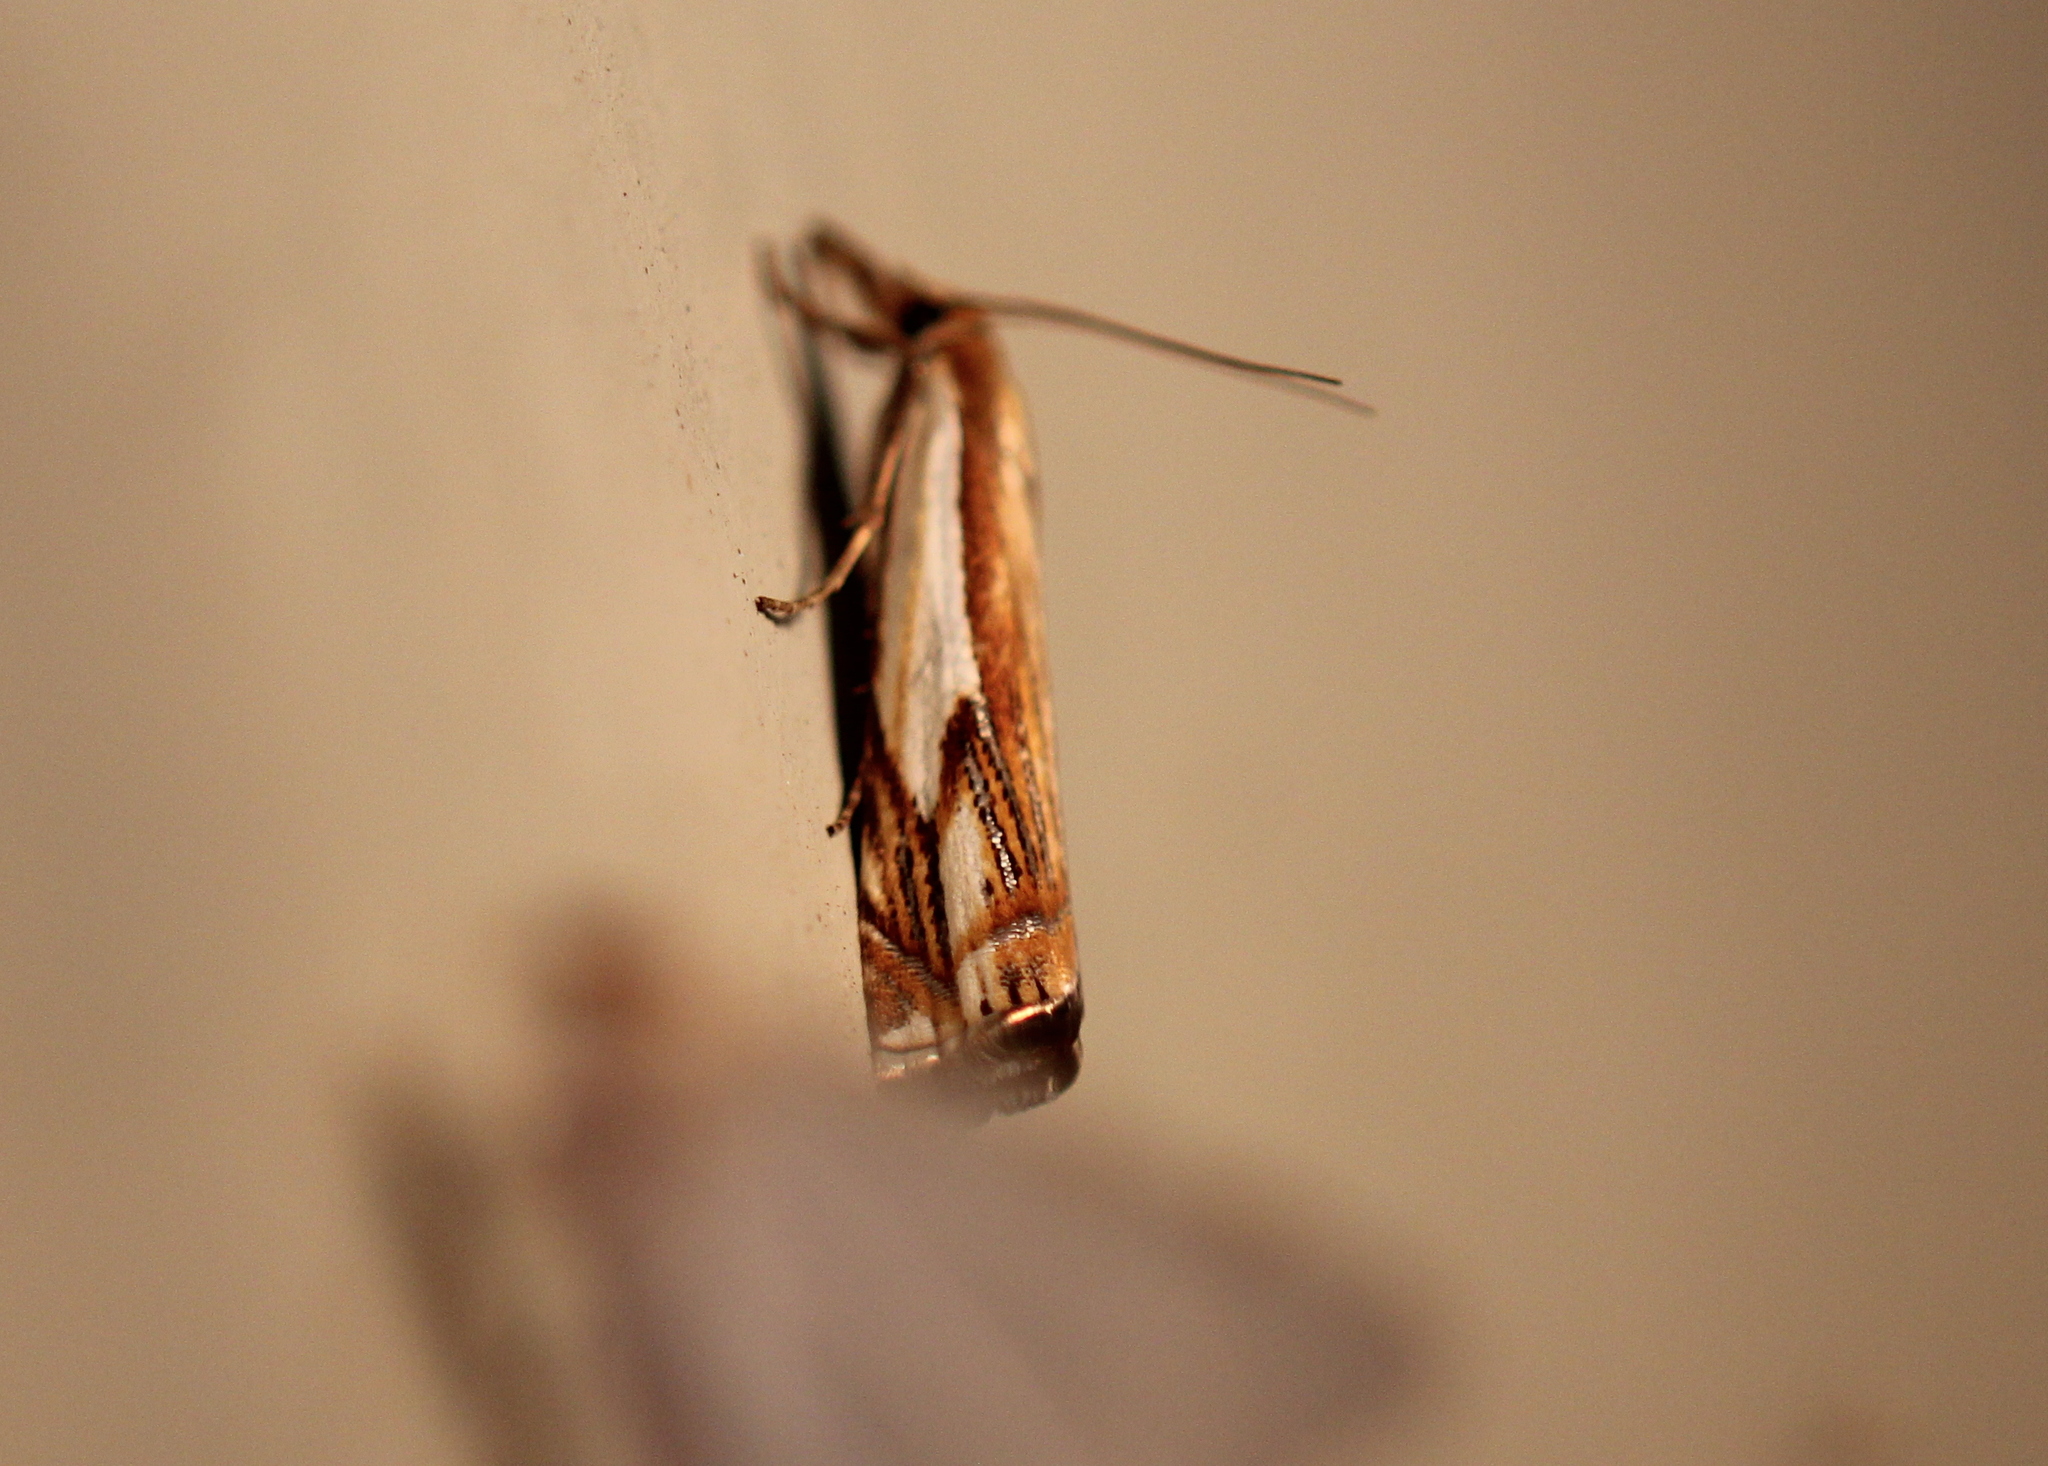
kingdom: Animalia
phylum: Arthropoda
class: Insecta
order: Lepidoptera
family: Crambidae
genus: Crambus
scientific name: Crambus agitatellus
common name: Double-banded grass-veneer
